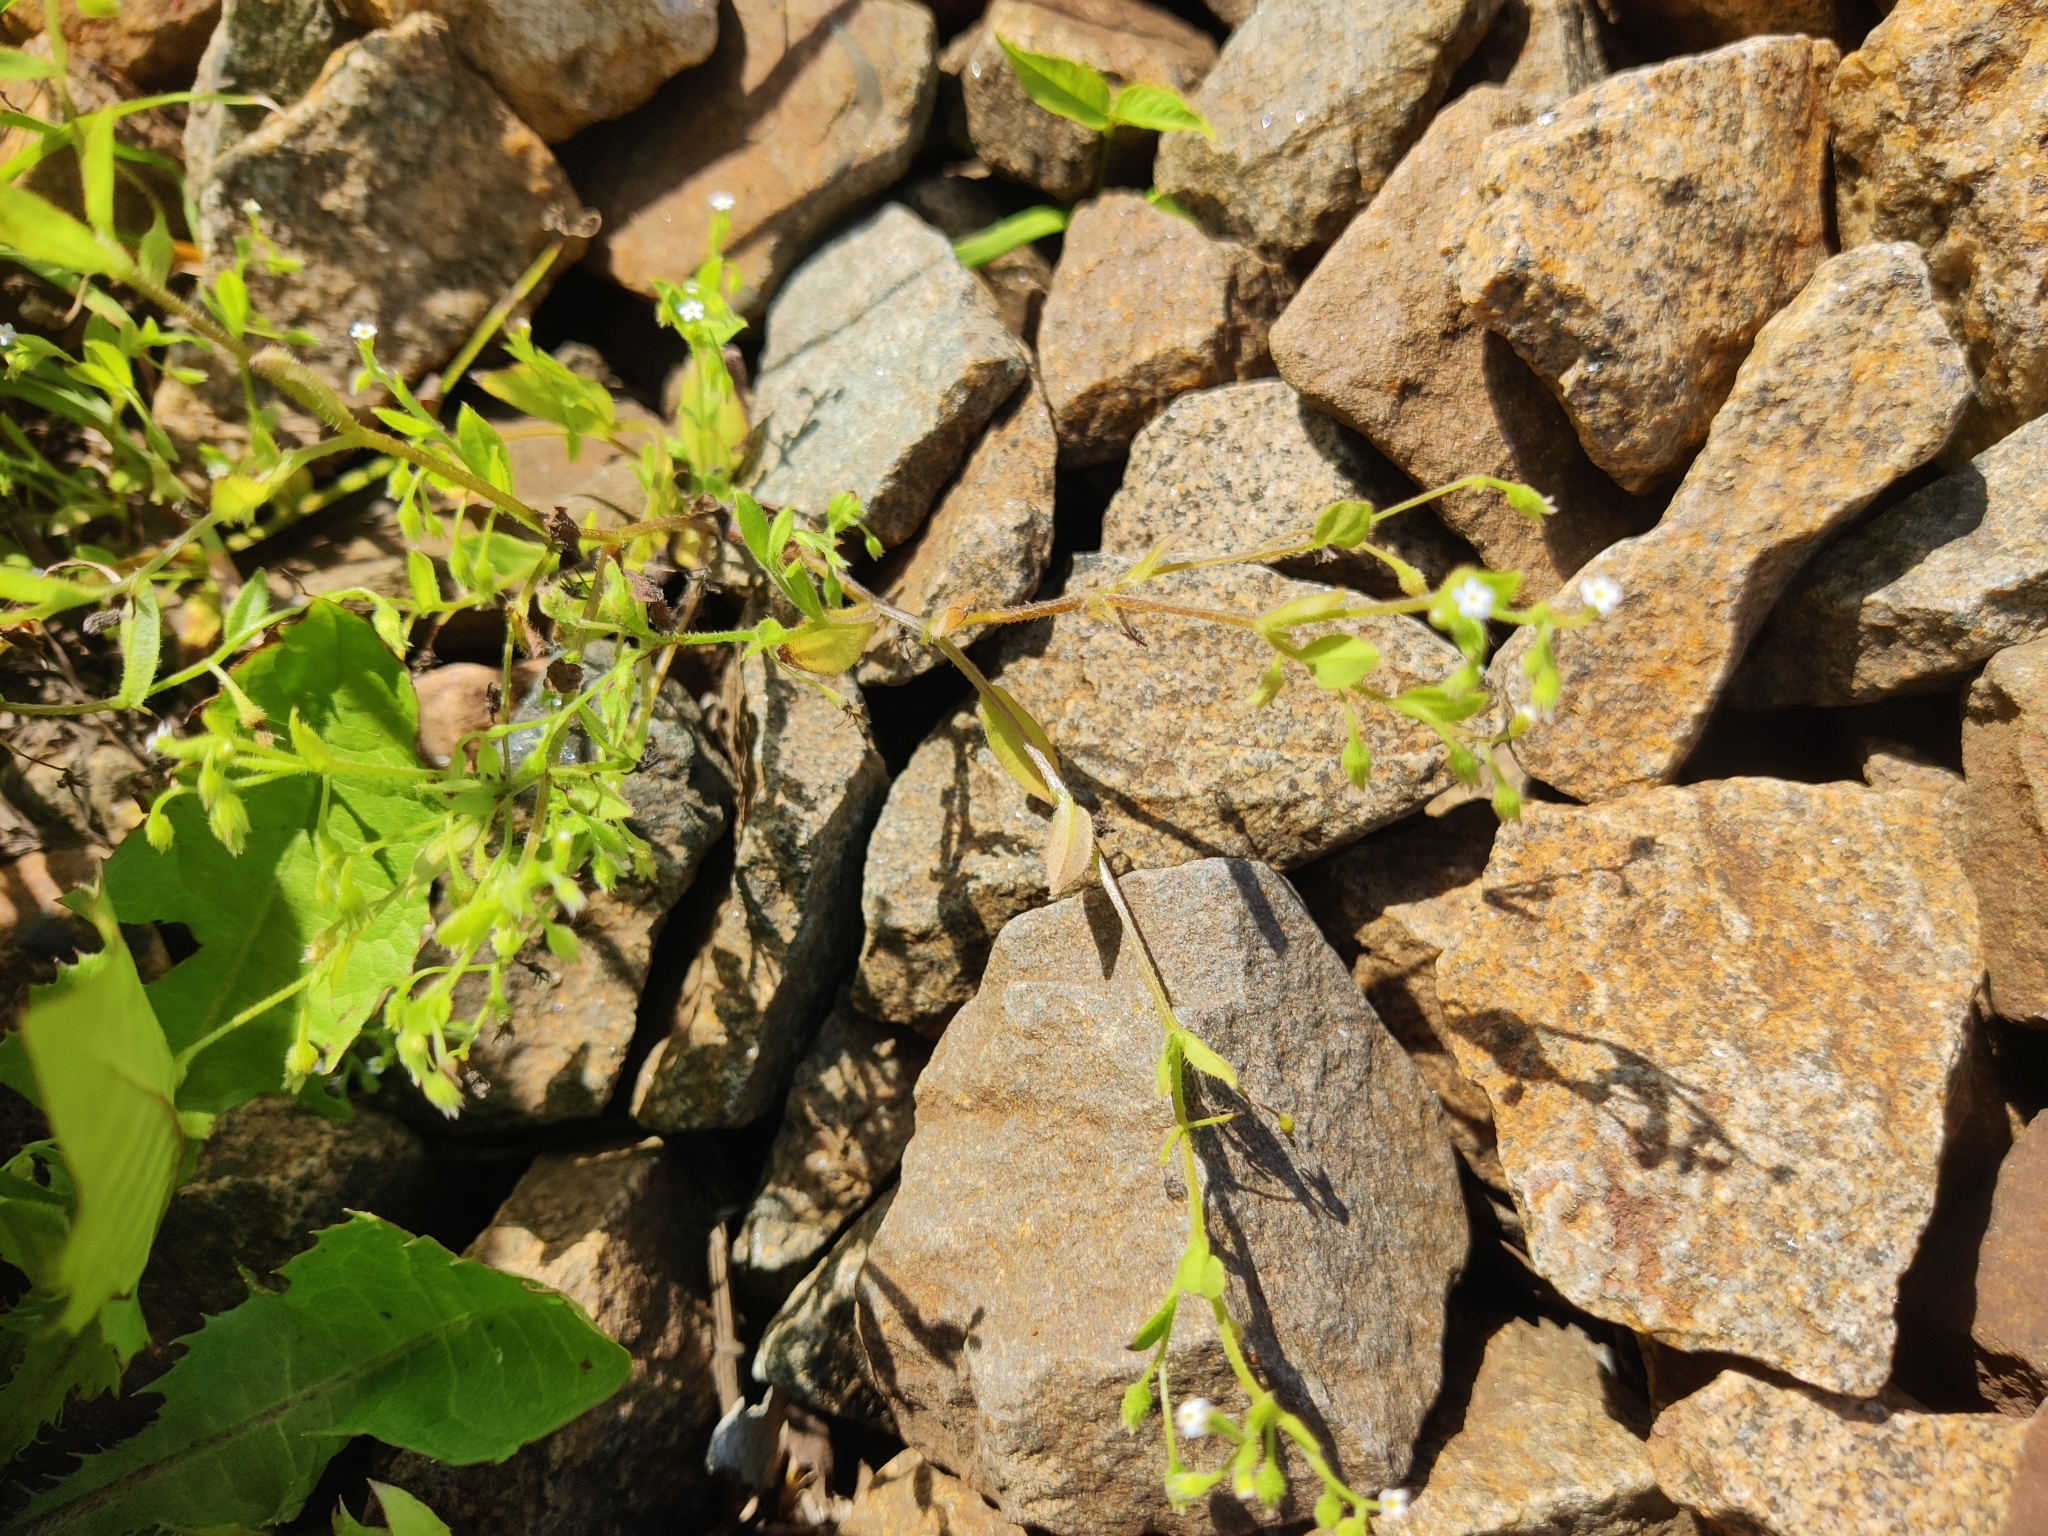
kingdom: Plantae
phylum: Tracheophyta
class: Magnoliopsida
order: Boraginales
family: Boraginaceae
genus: Myosotis
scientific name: Myosotis sparsiflora
